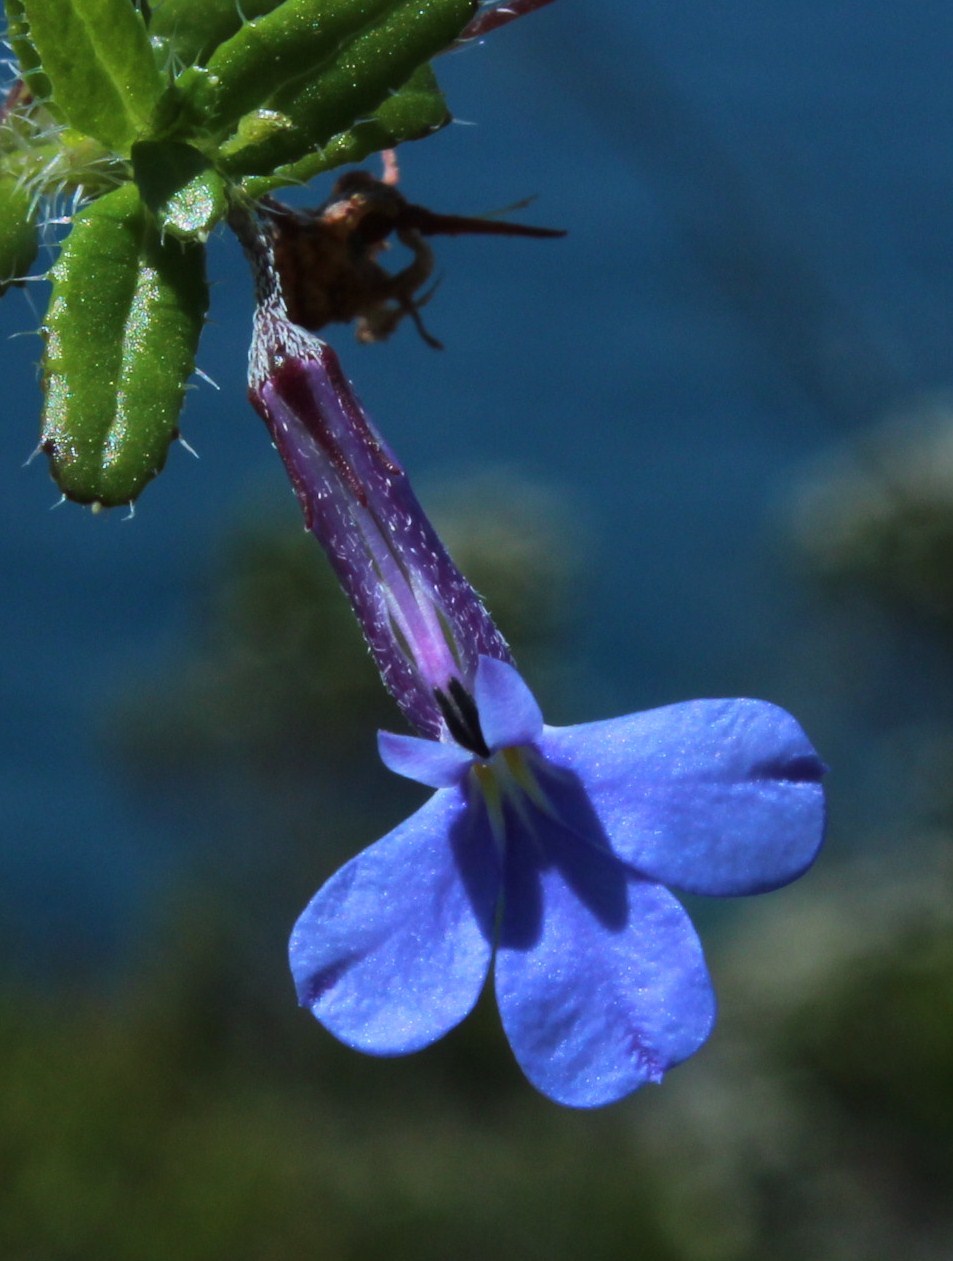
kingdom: Plantae
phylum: Tracheophyta
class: Magnoliopsida
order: Asterales
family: Campanulaceae
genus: Lobelia
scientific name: Lobelia neglecta
